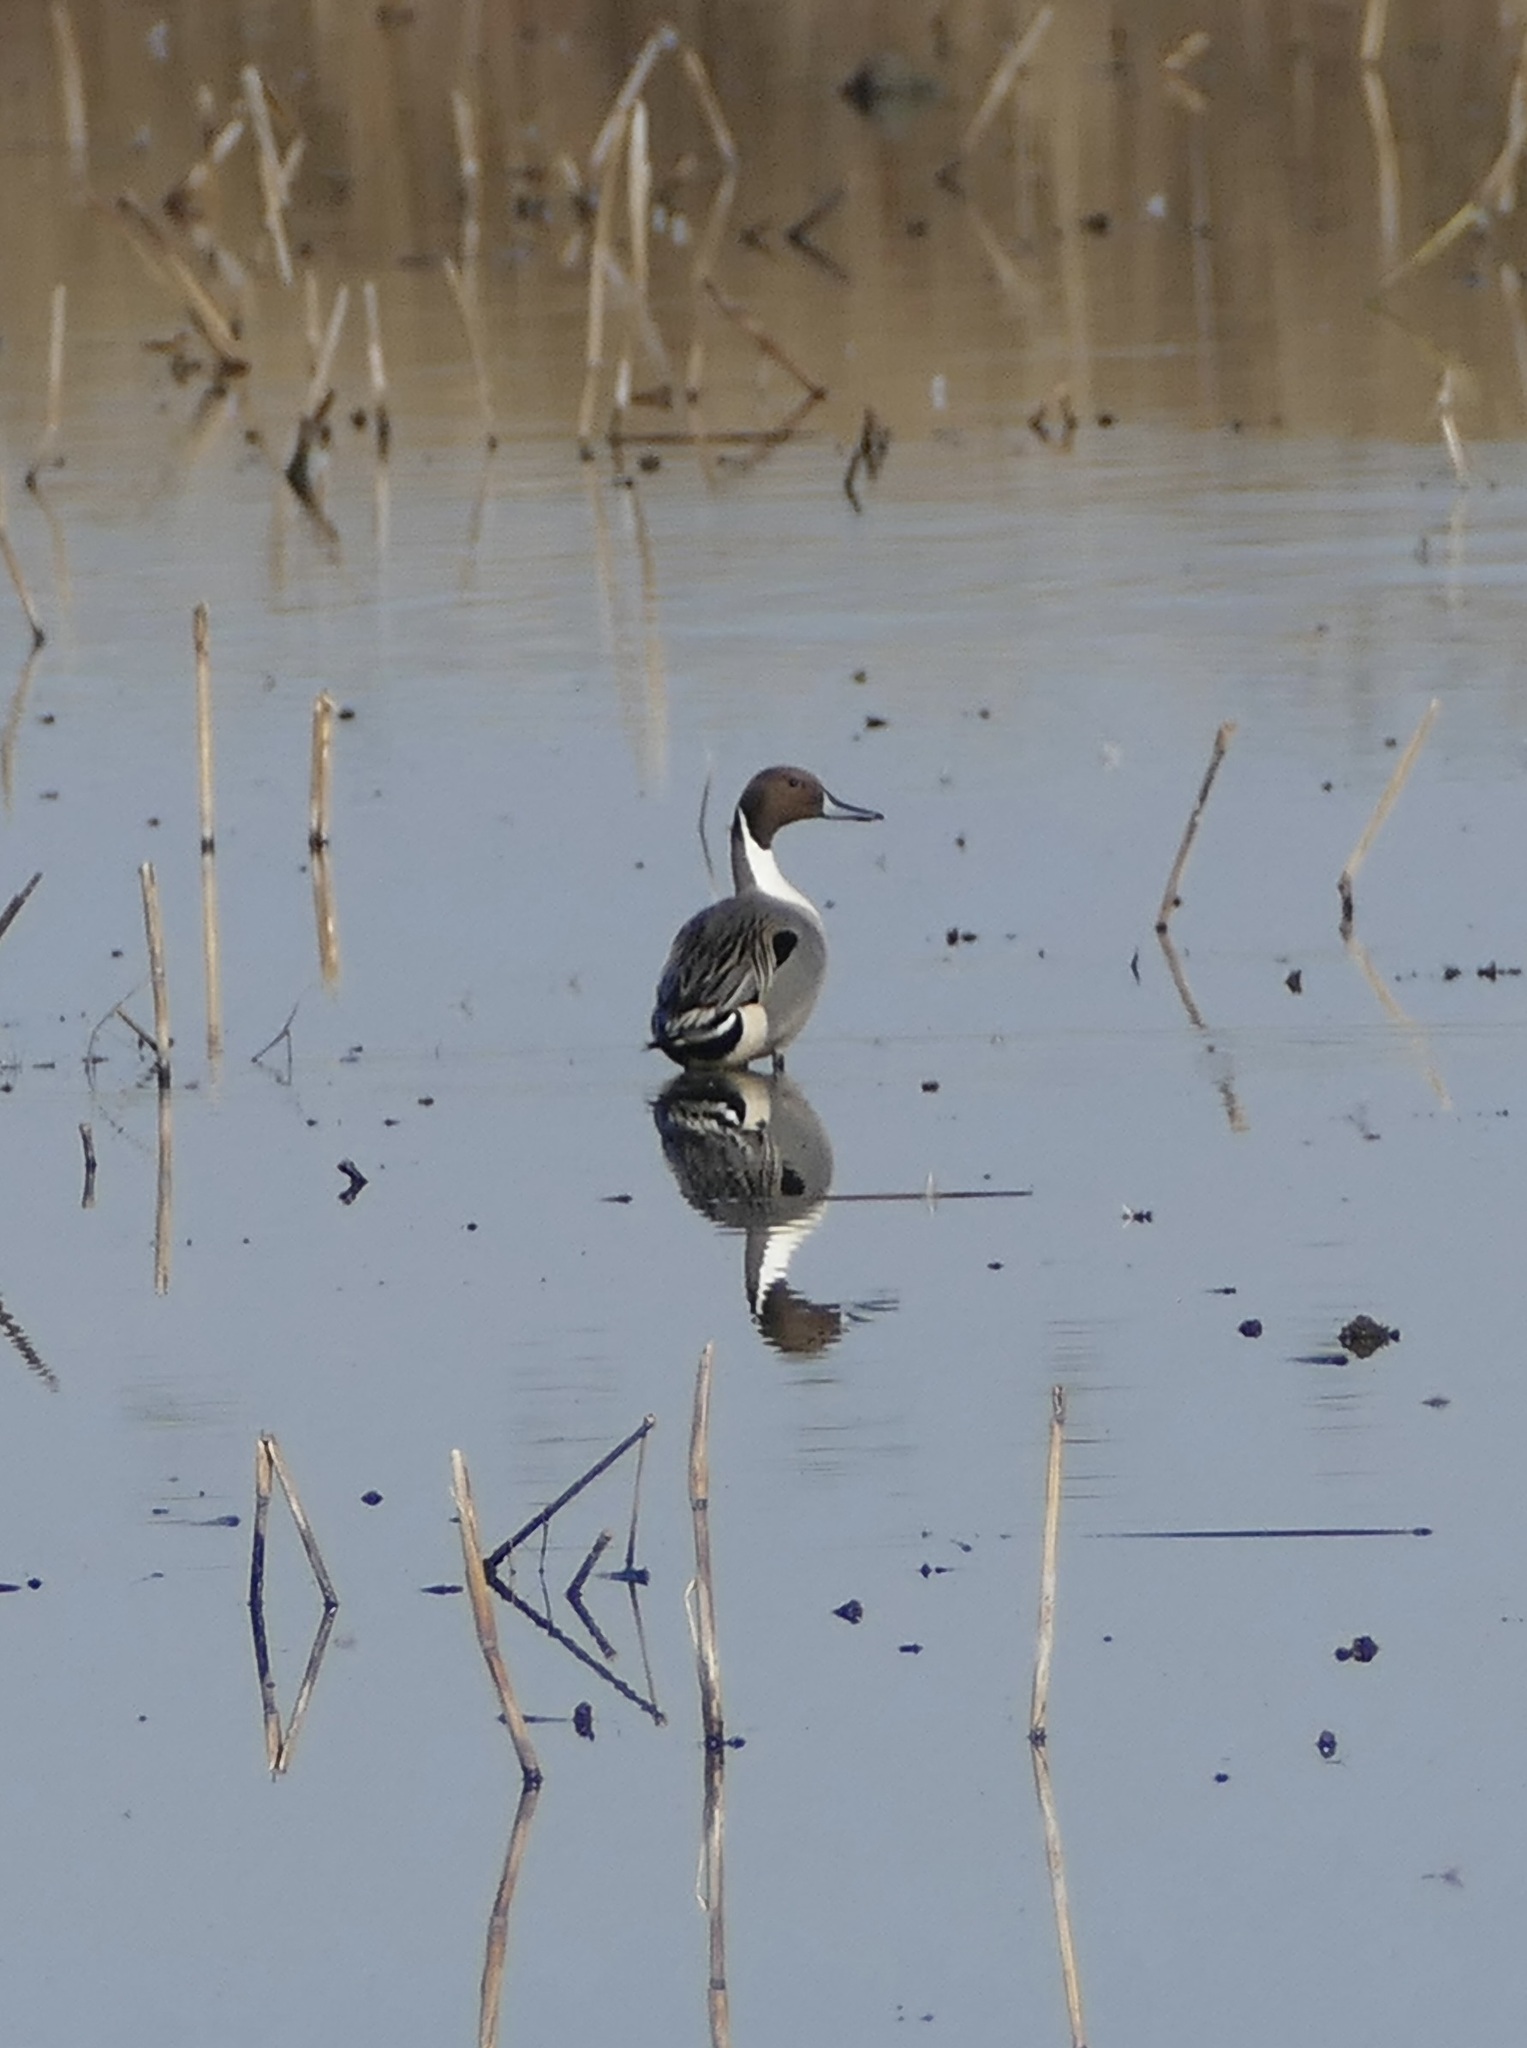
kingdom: Animalia
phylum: Chordata
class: Aves
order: Anseriformes
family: Anatidae
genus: Anas
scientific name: Anas acuta
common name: Northern pintail
